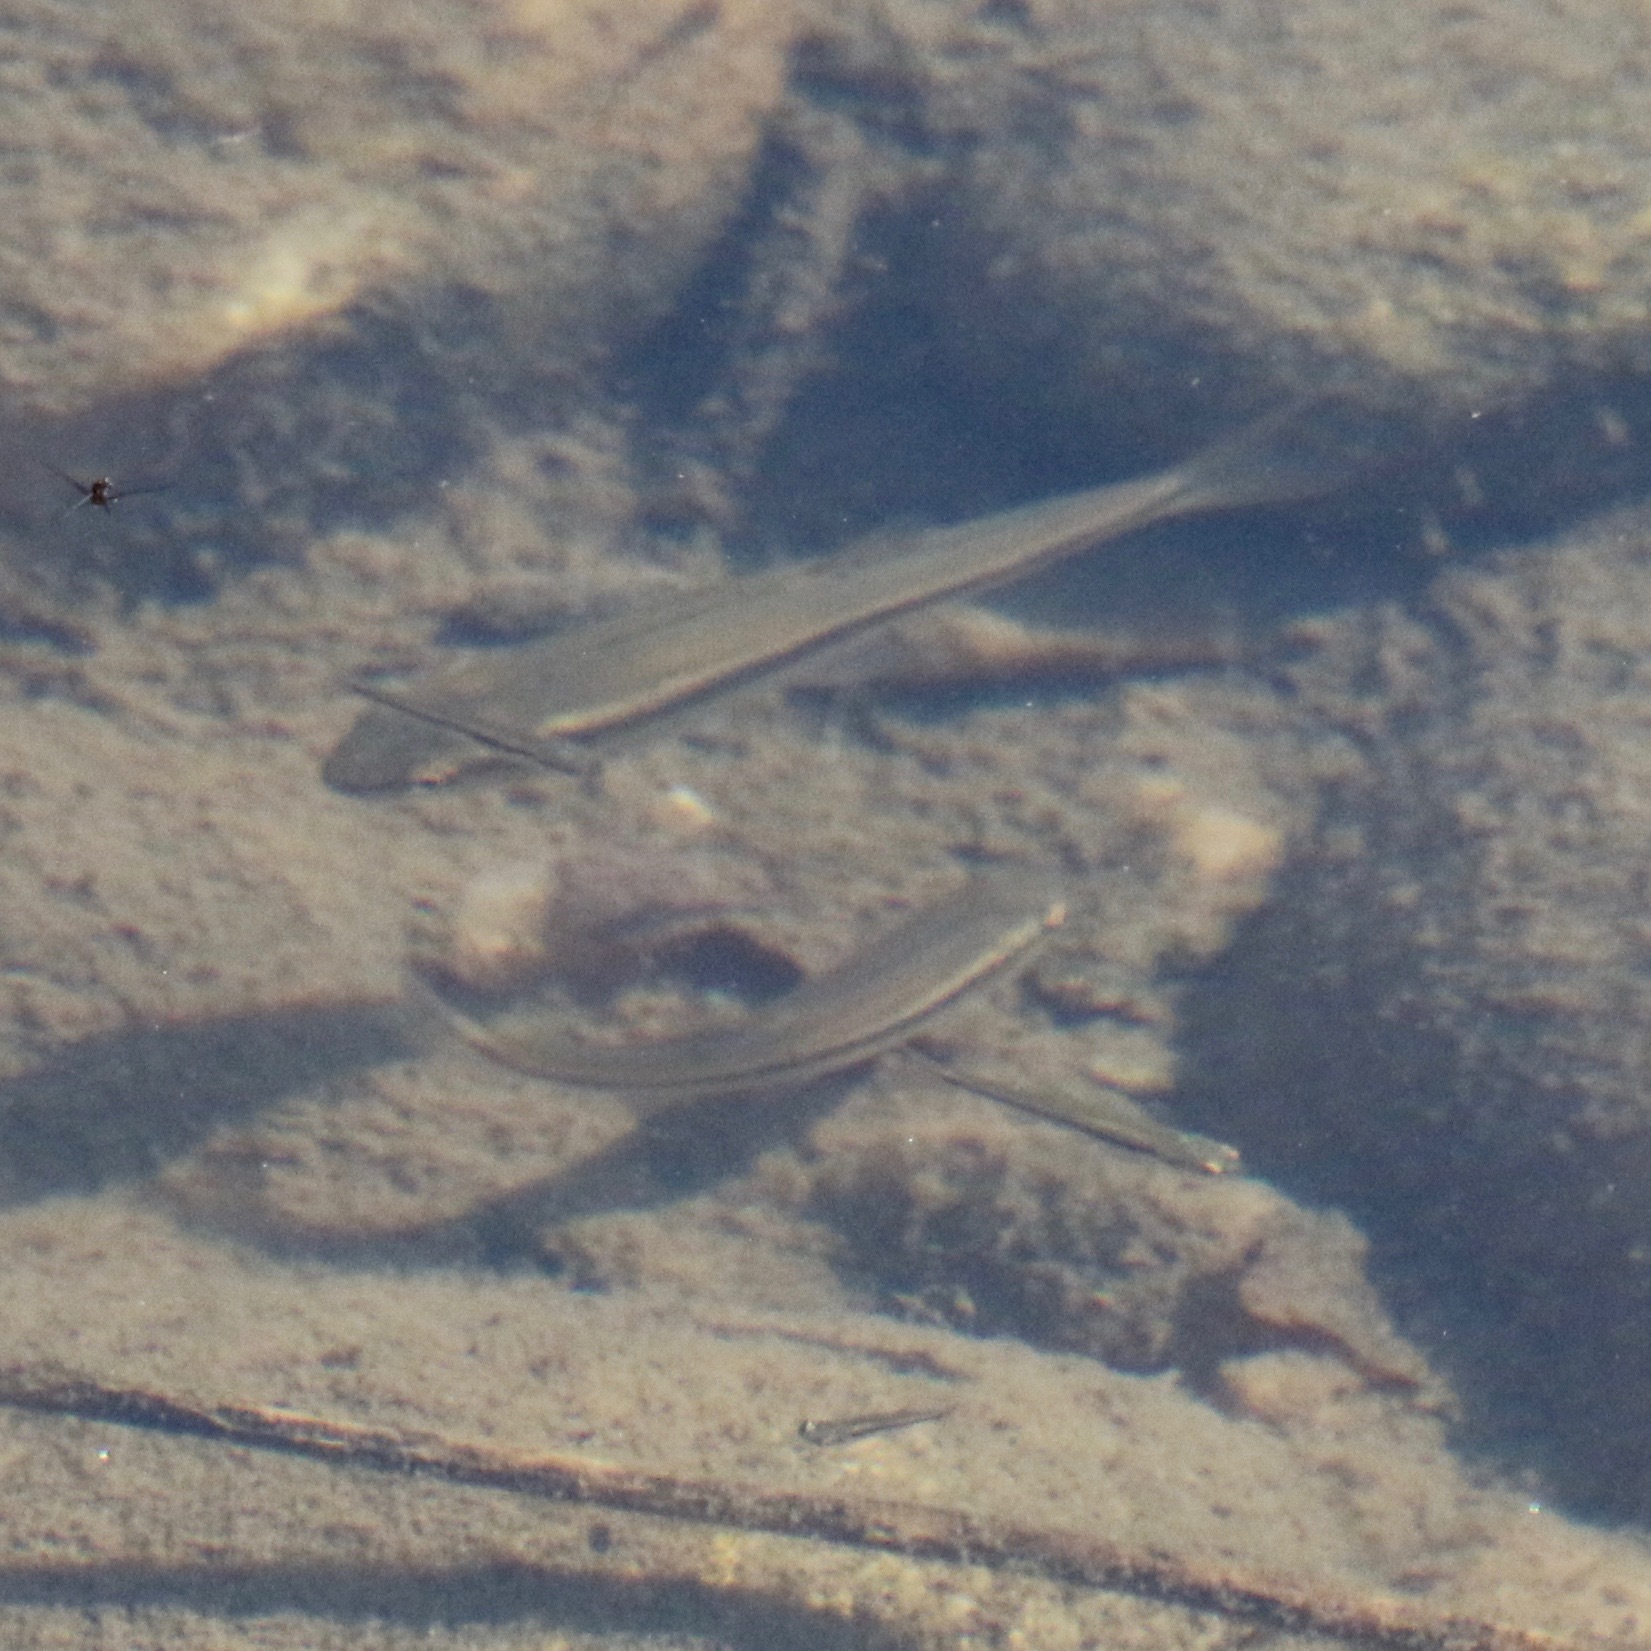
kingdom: Animalia
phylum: Chordata
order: Cypriniformes
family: Cyprinidae
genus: Rhinichthys
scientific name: Rhinichthys atratulus
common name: Eastern blacknose dace
